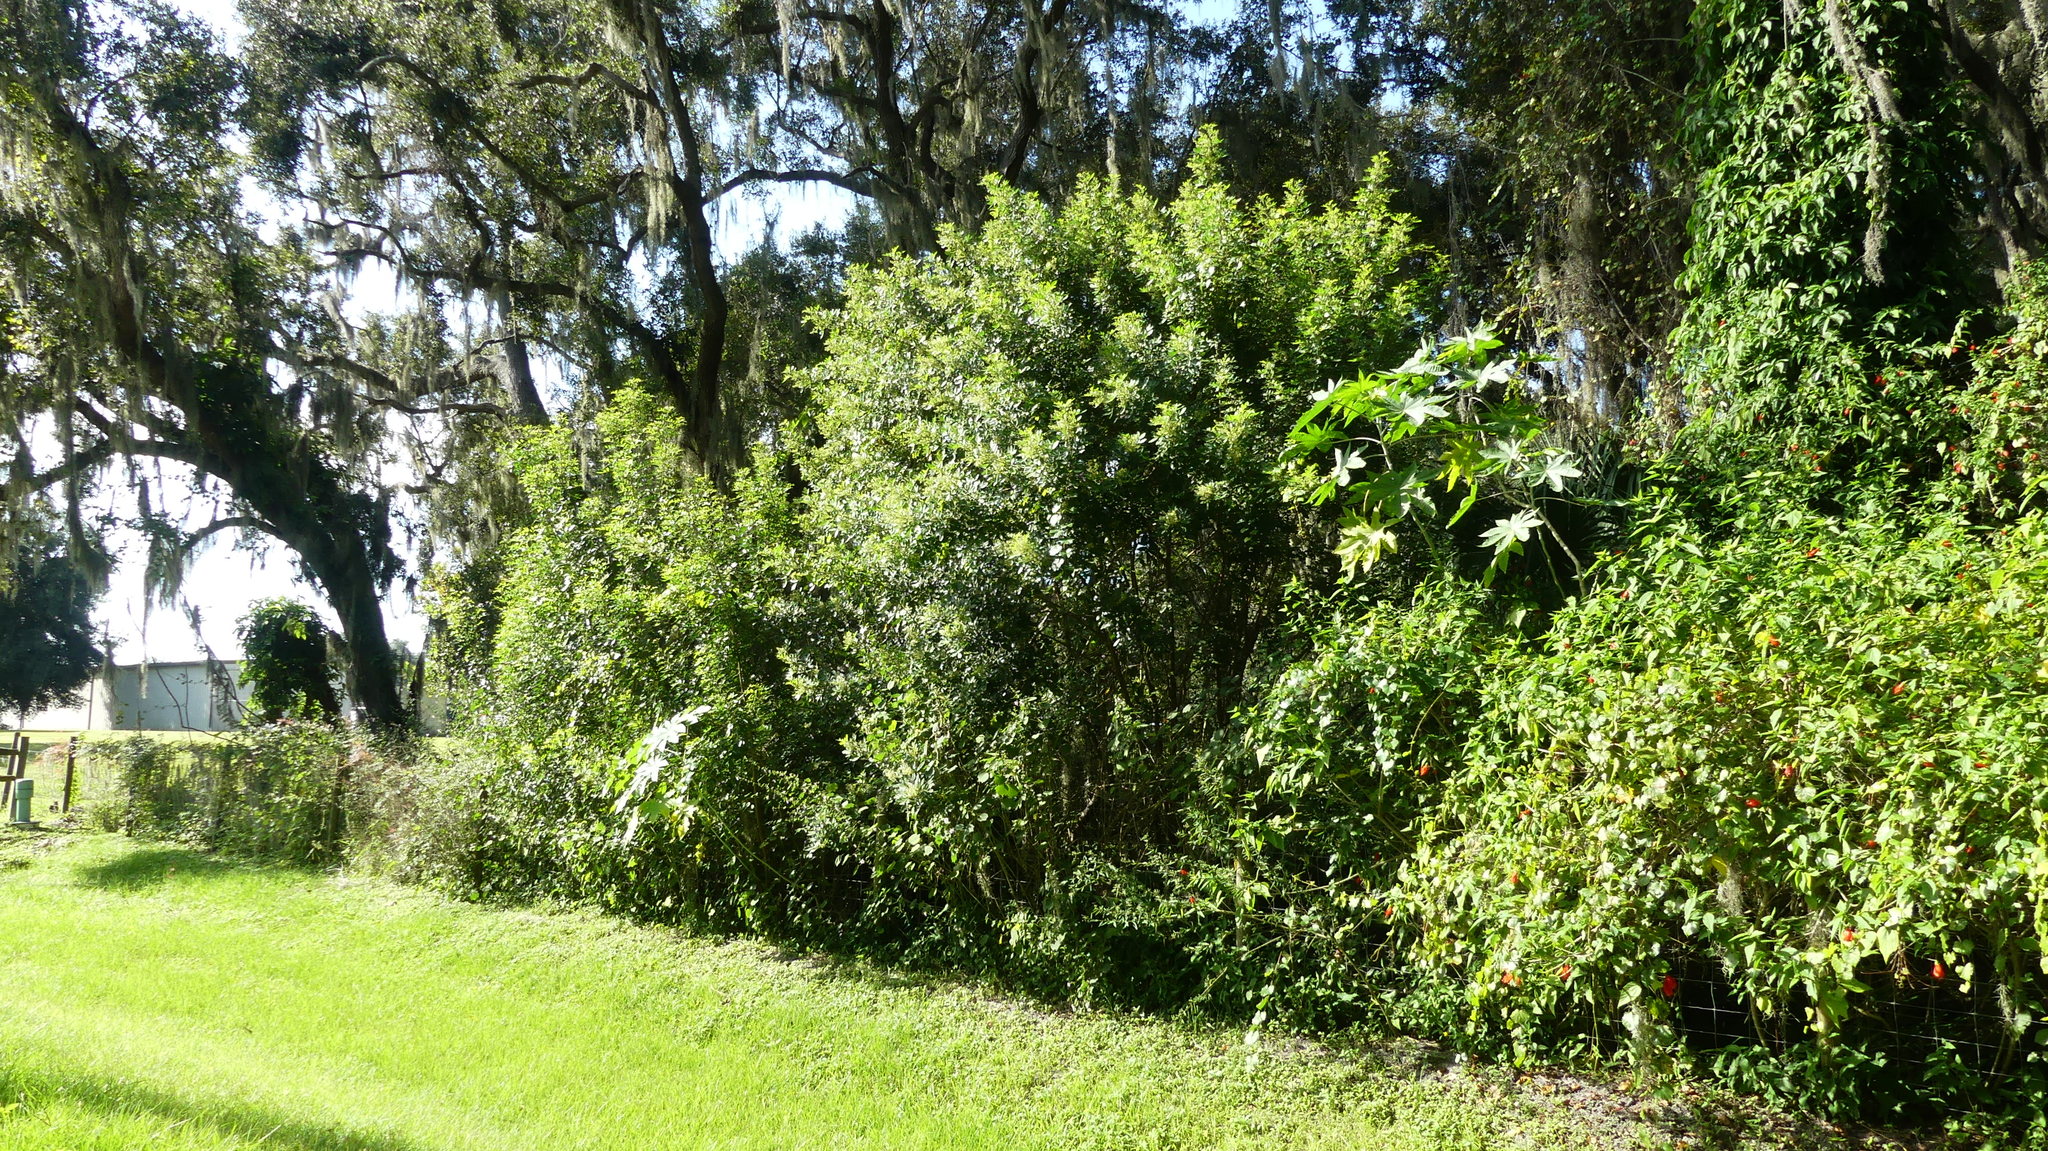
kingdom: Plantae
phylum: Tracheophyta
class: Magnoliopsida
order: Sapindales
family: Anacardiaceae
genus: Schinus
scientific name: Schinus terebinthifolia
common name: Brazilian peppertree
